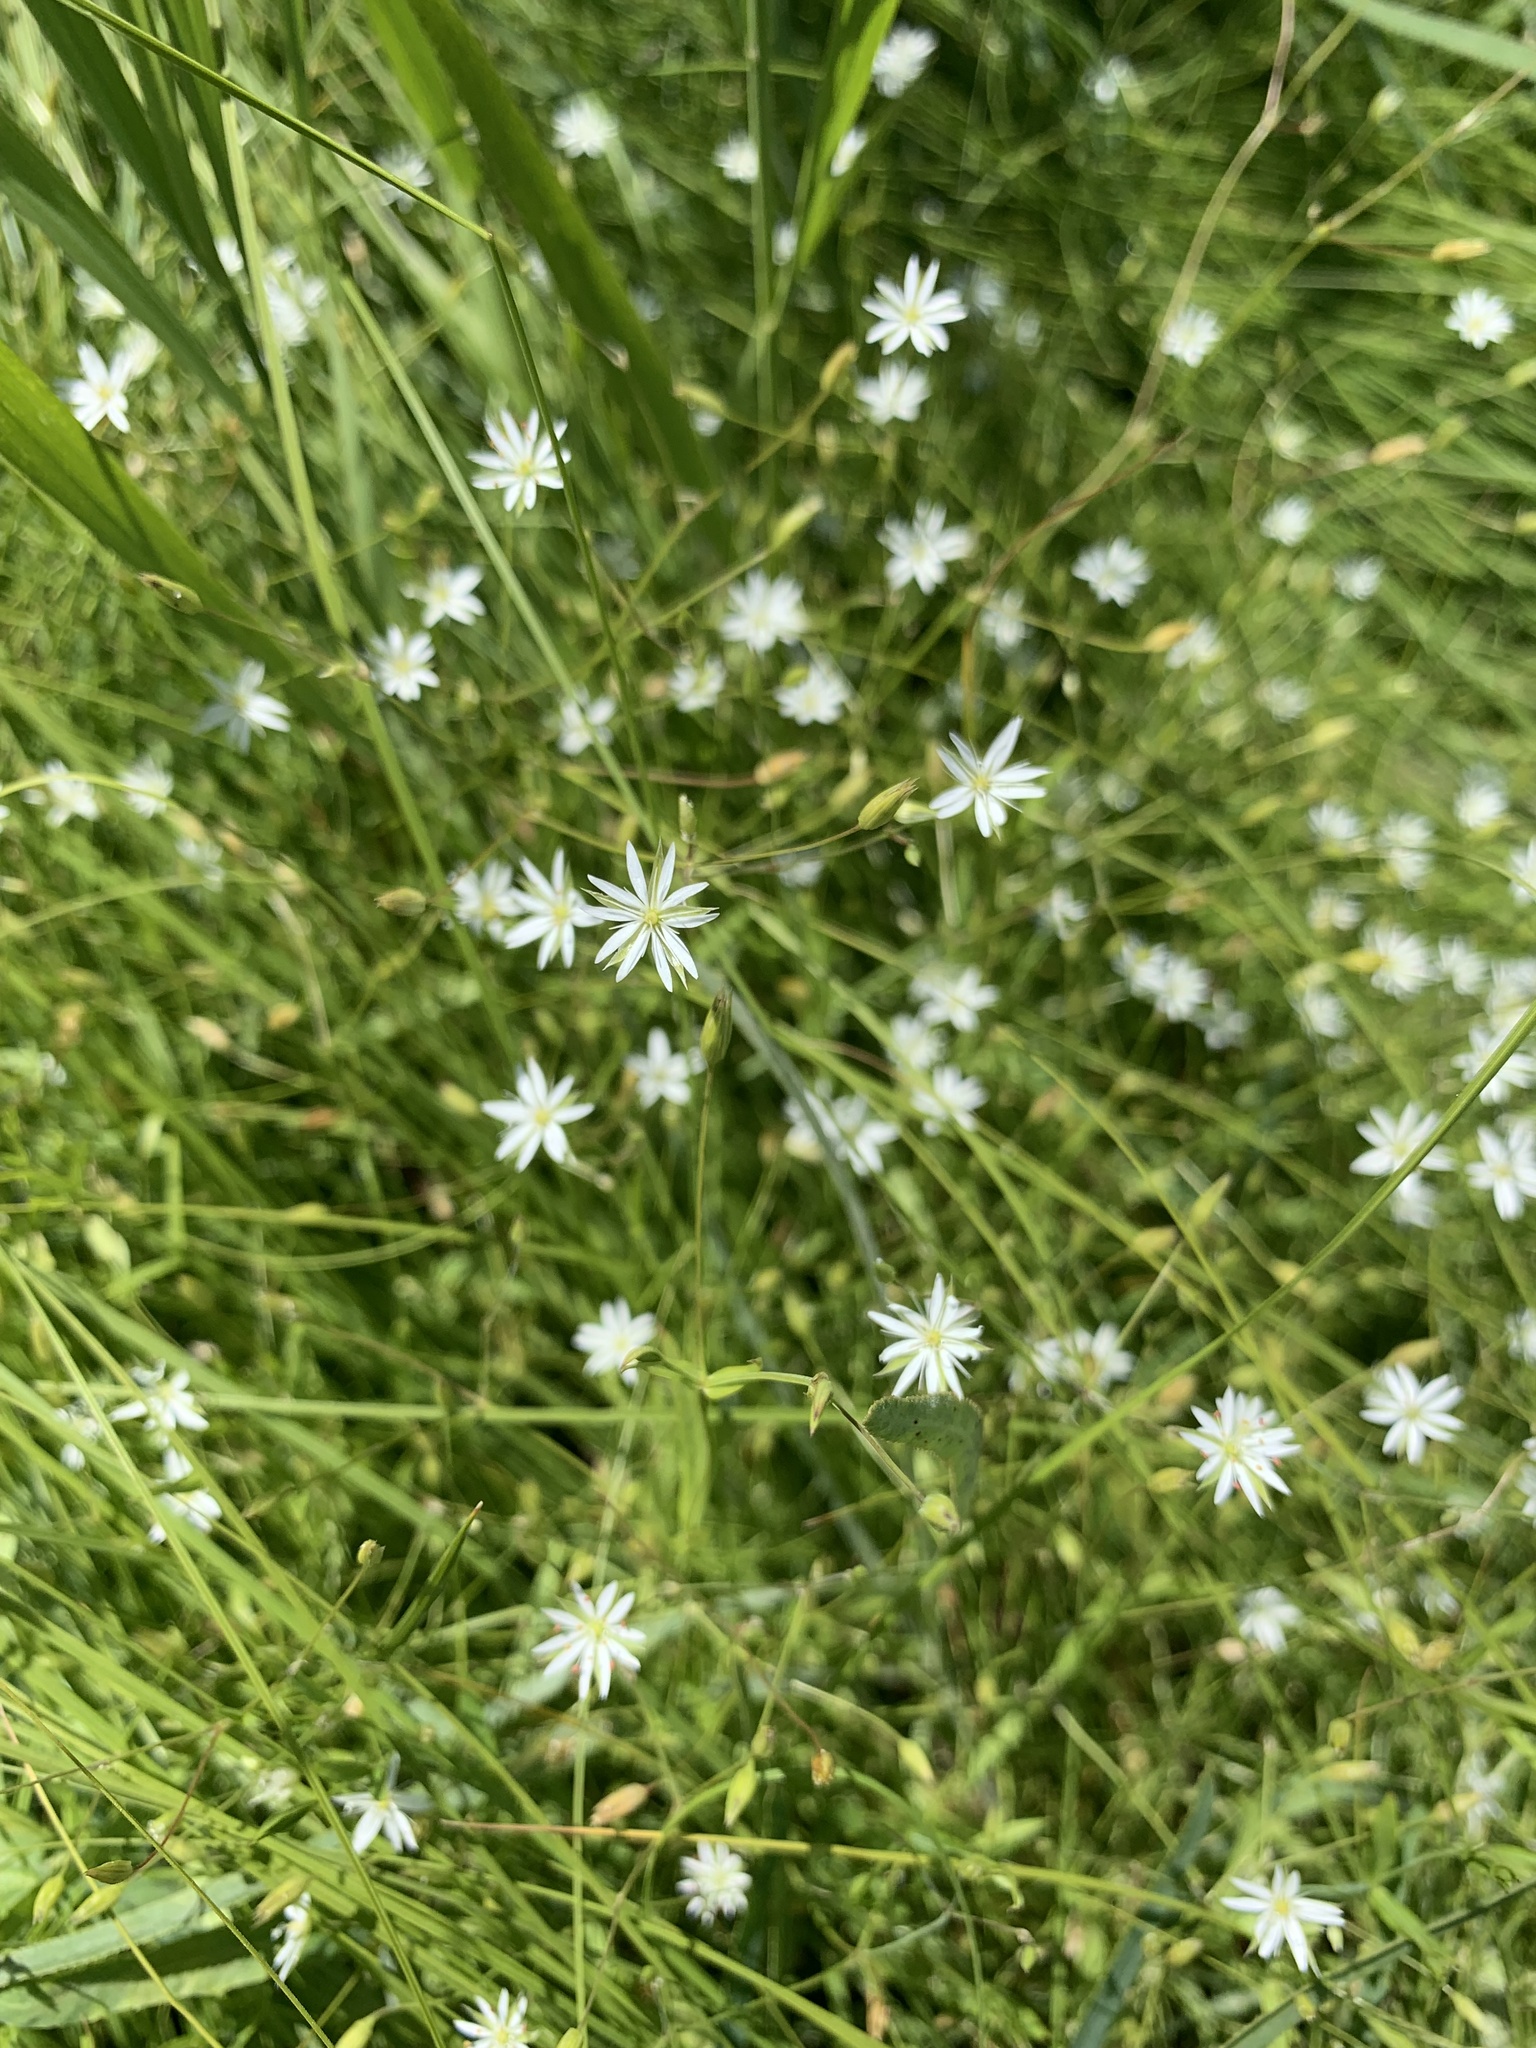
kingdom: Plantae
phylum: Tracheophyta
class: Magnoliopsida
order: Caryophyllales
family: Caryophyllaceae
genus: Stellaria
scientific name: Stellaria graminea
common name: Grass-like starwort
